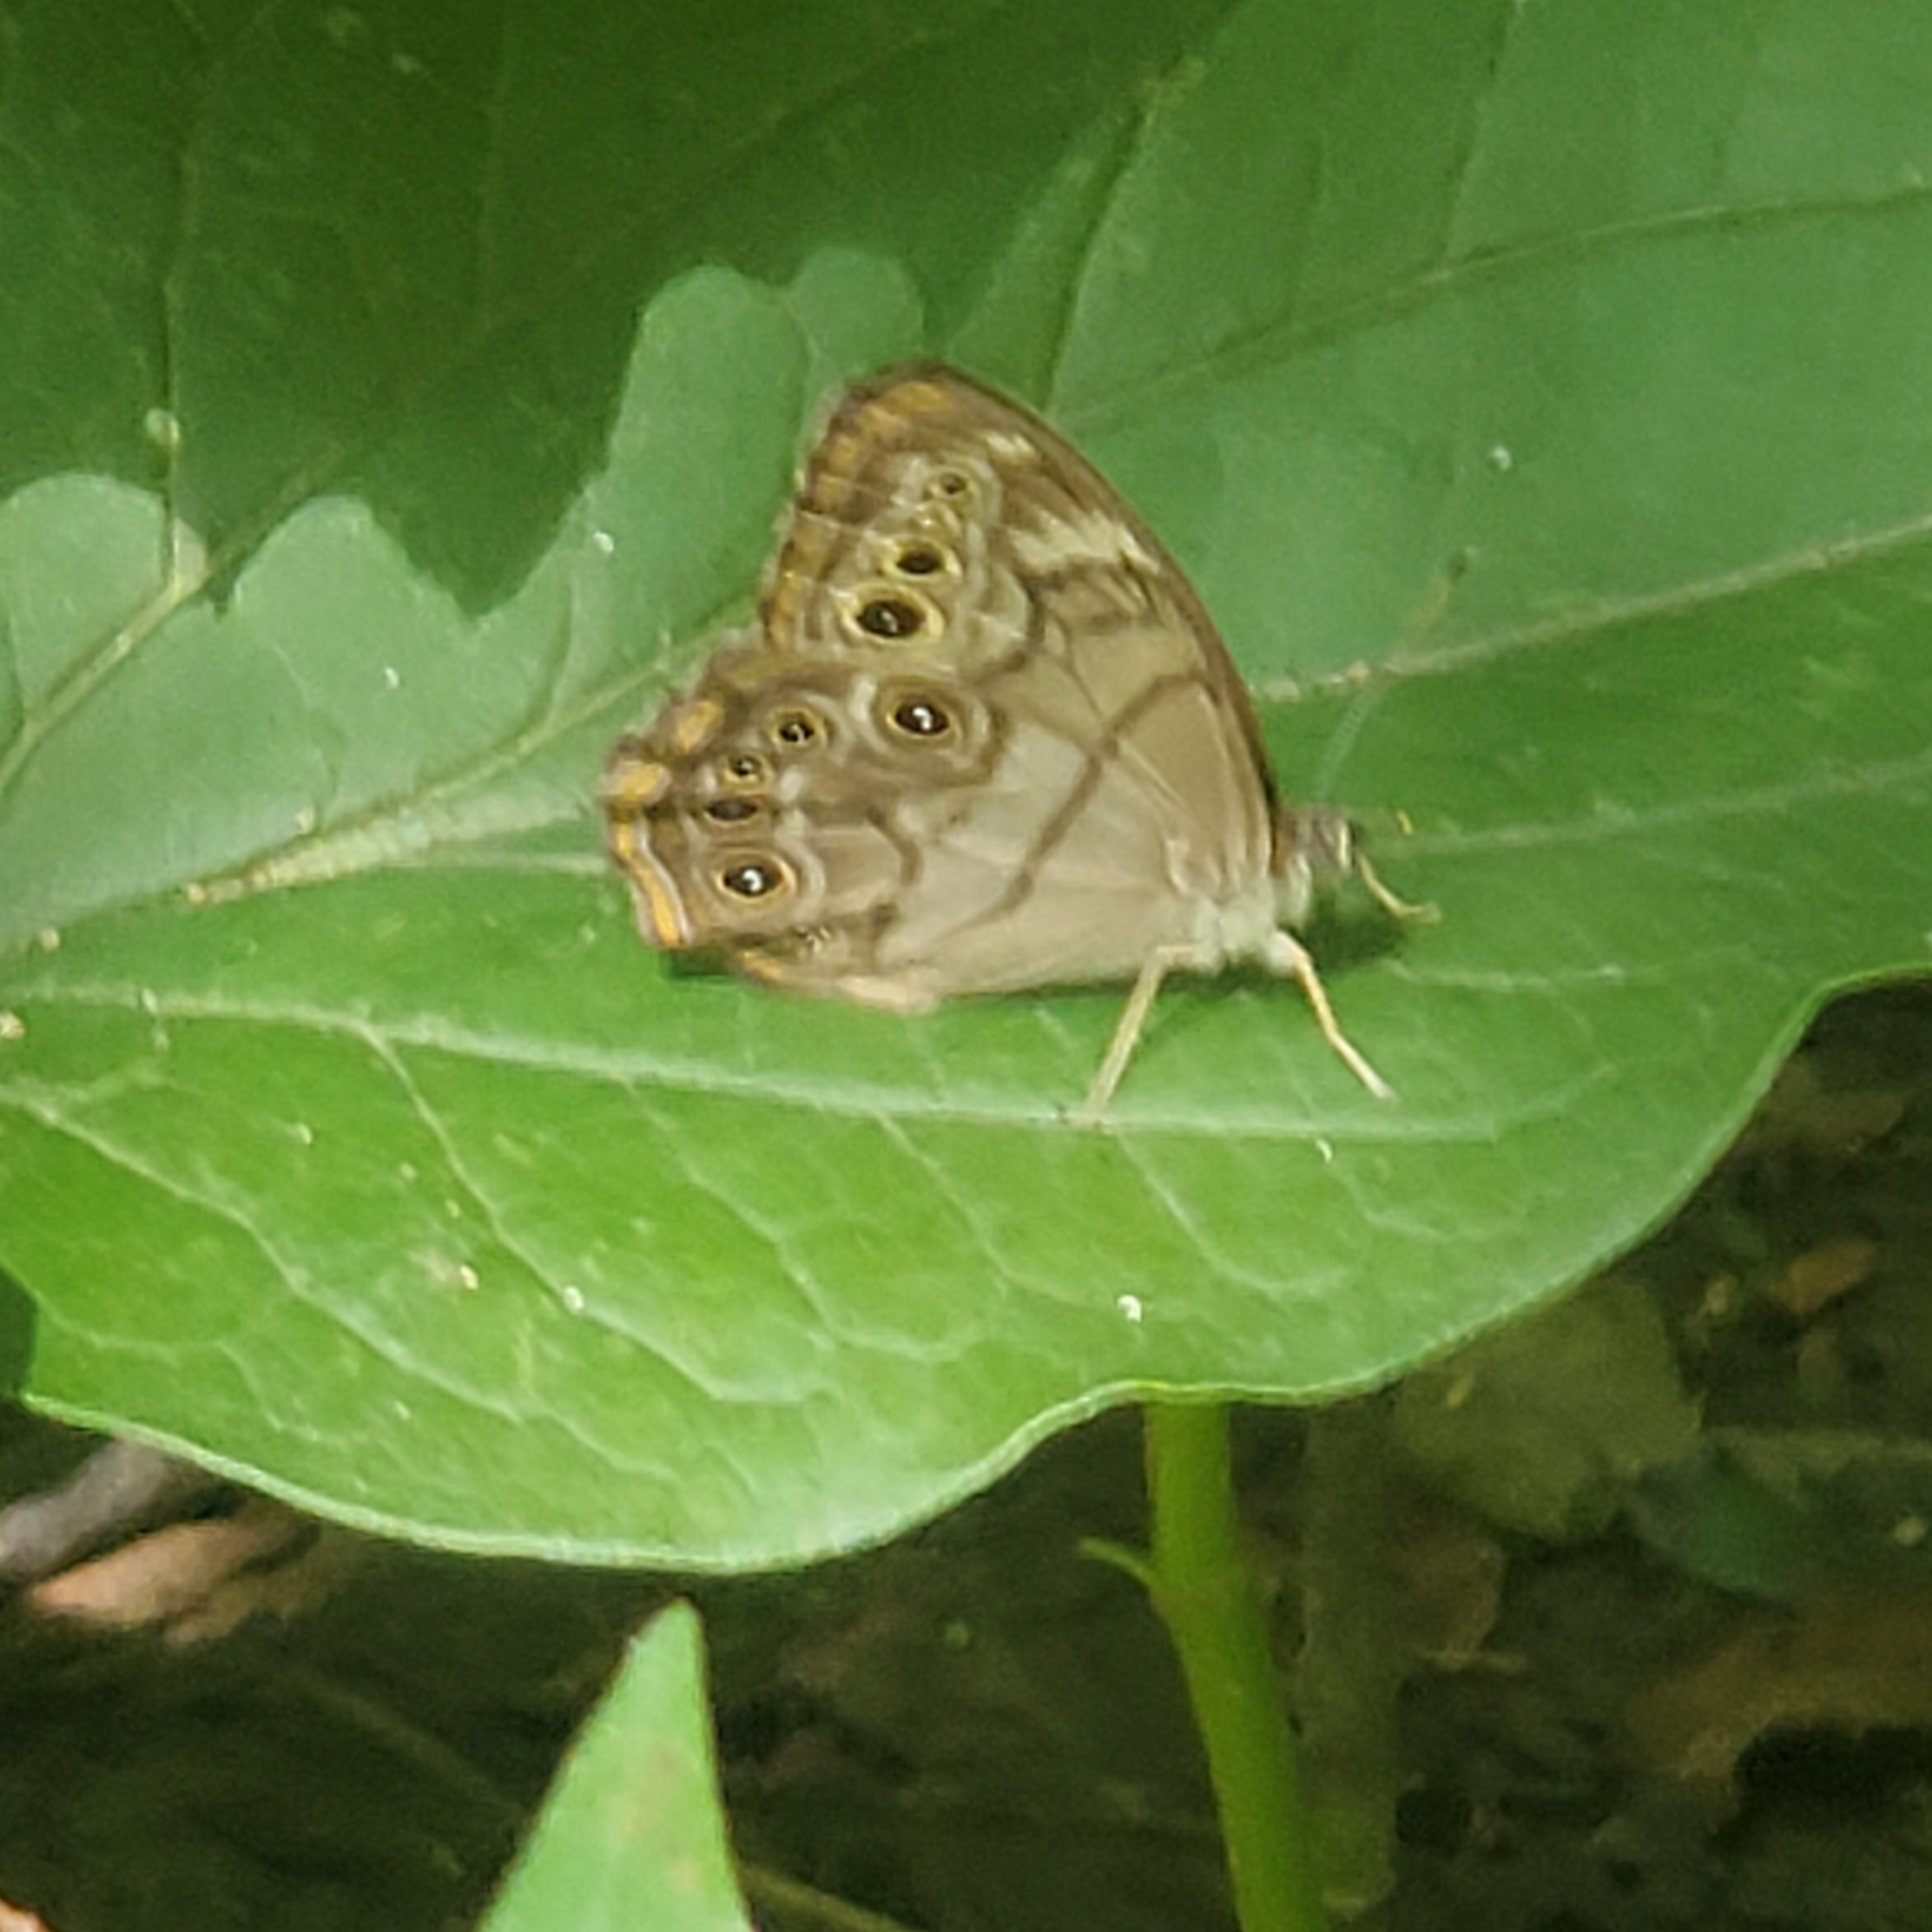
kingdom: Animalia
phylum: Arthropoda
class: Insecta
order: Lepidoptera
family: Nymphalidae
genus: Lethe
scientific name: Lethe anthedon
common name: Northern pearly-eye
